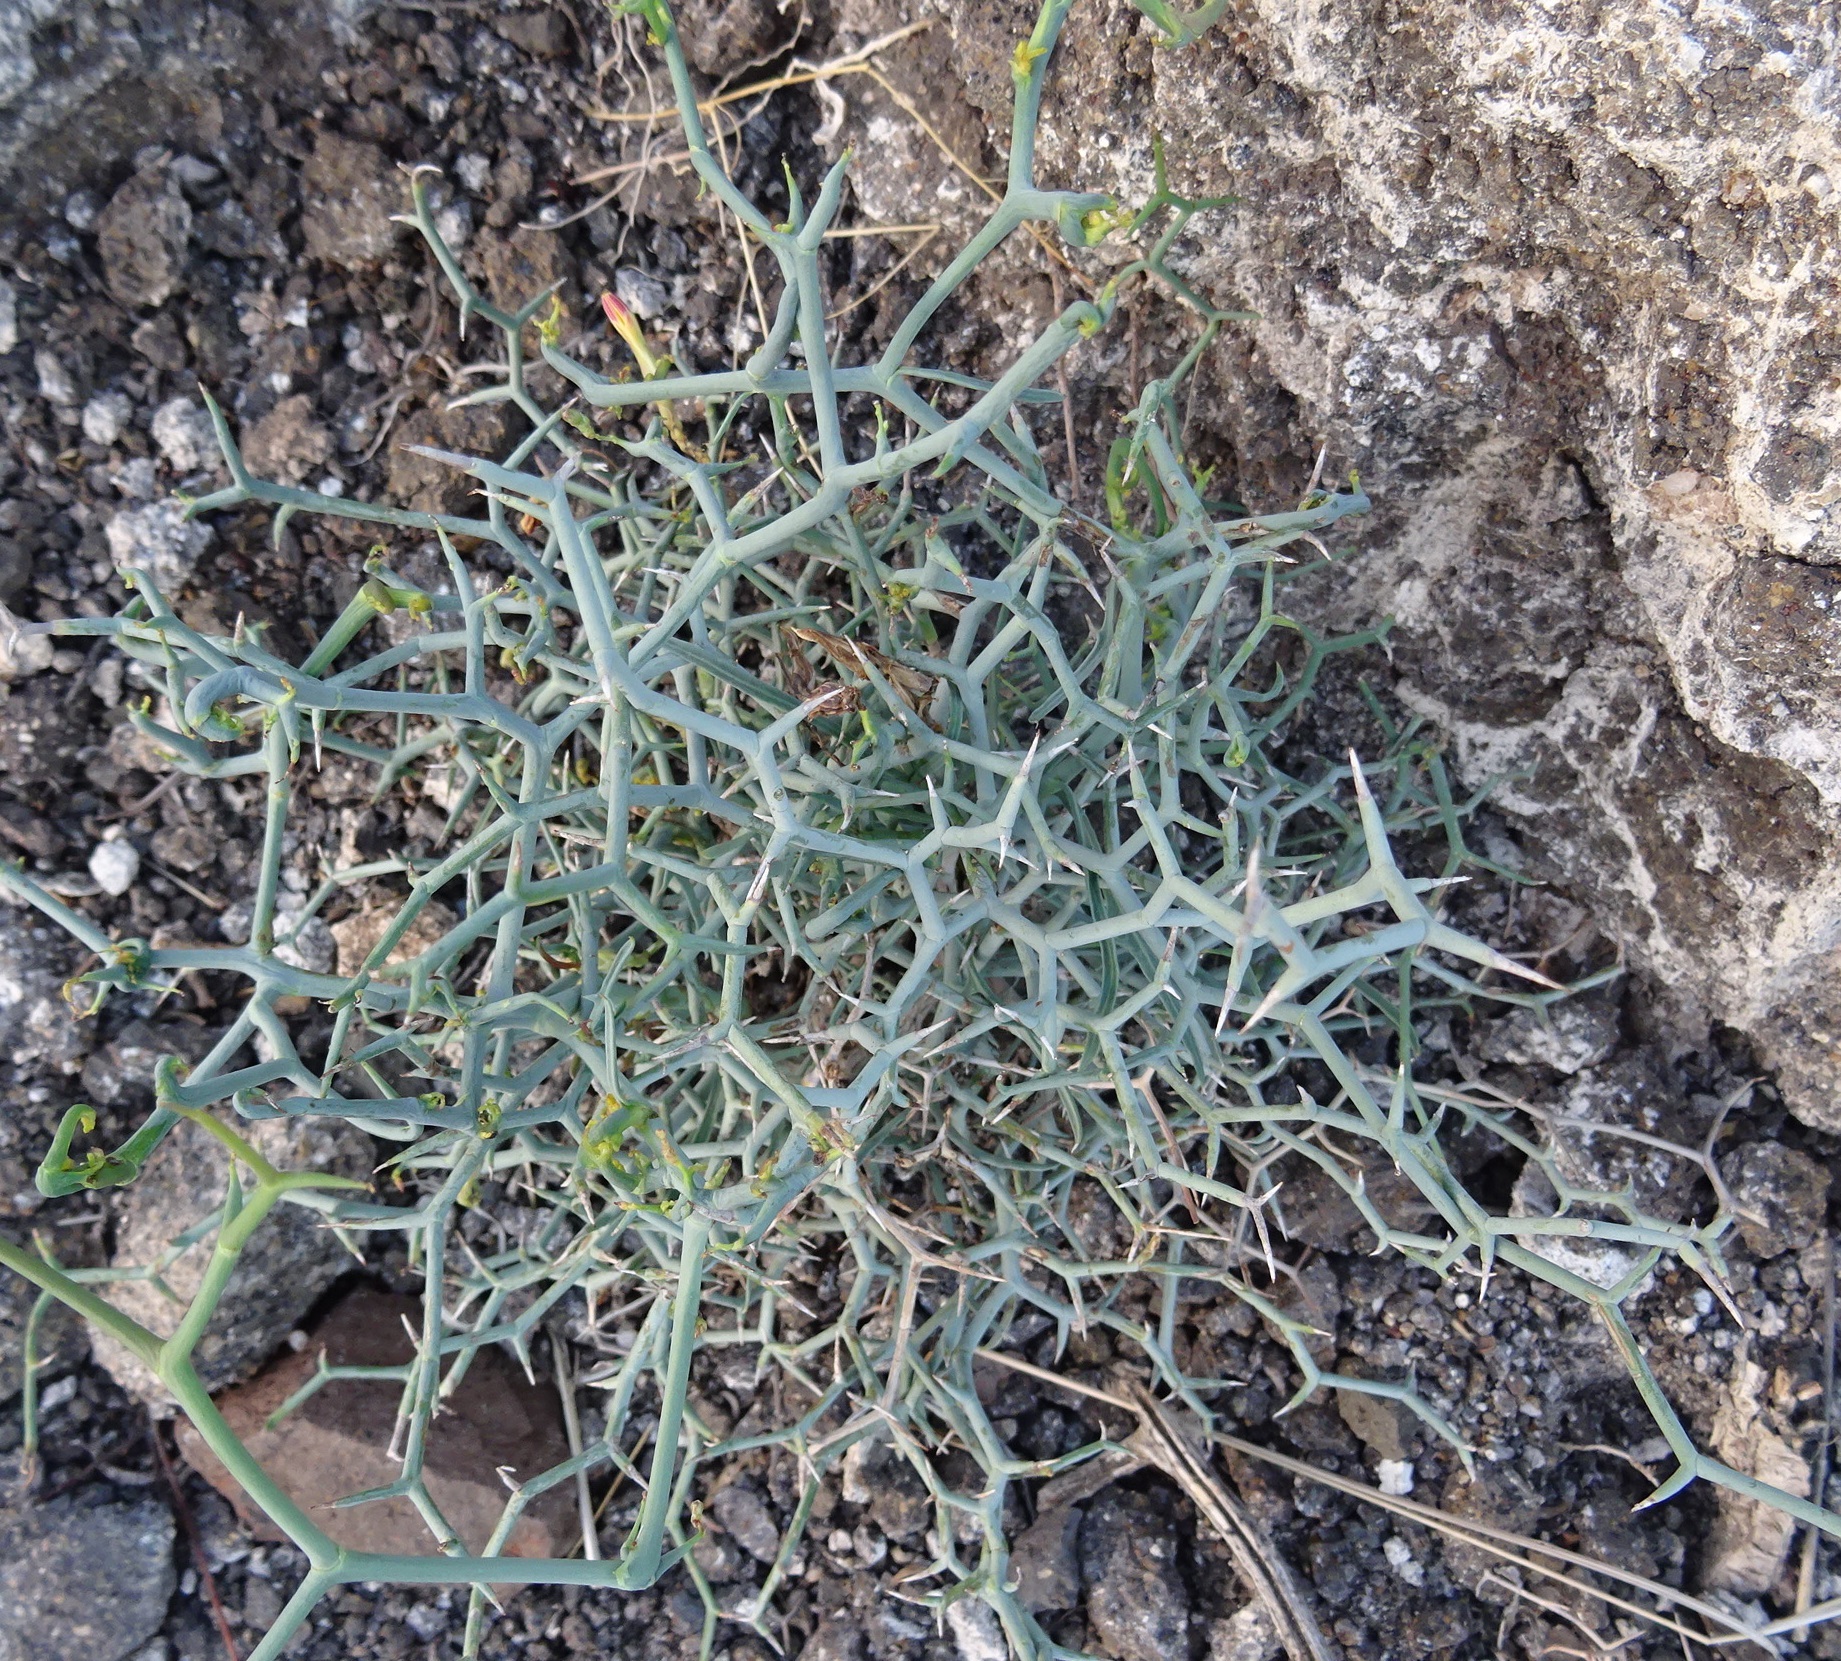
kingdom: Plantae
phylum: Tracheophyta
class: Magnoliopsida
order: Asterales
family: Asteraceae
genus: Launaea
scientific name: Launaea arborescens
